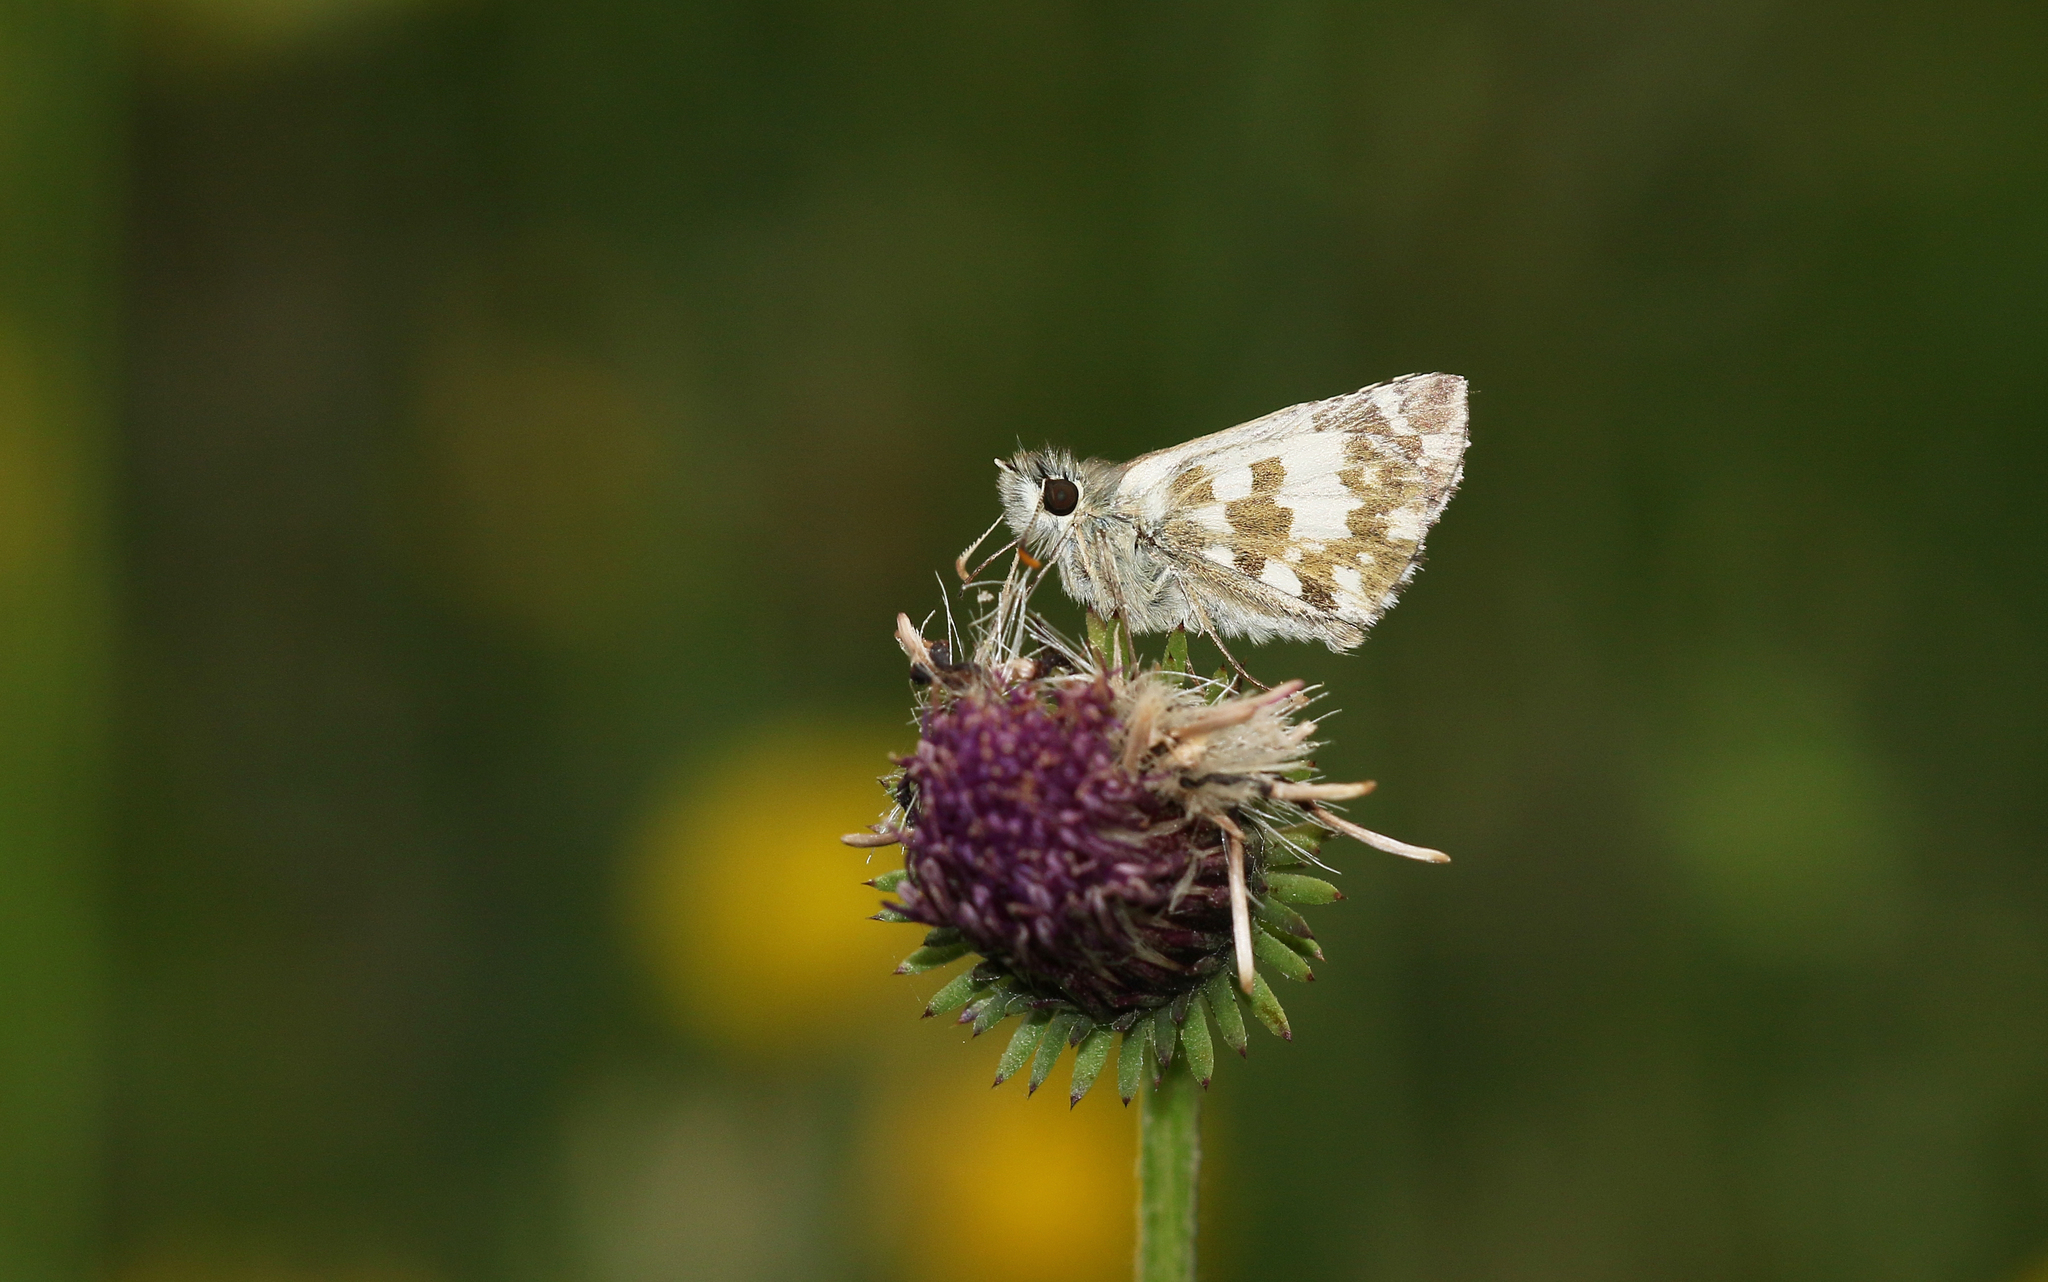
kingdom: Animalia
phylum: Arthropoda
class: Insecta
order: Lepidoptera
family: Hesperiidae
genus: Pyrgus
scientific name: Pyrgus alveus
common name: Large grizzled skipper
